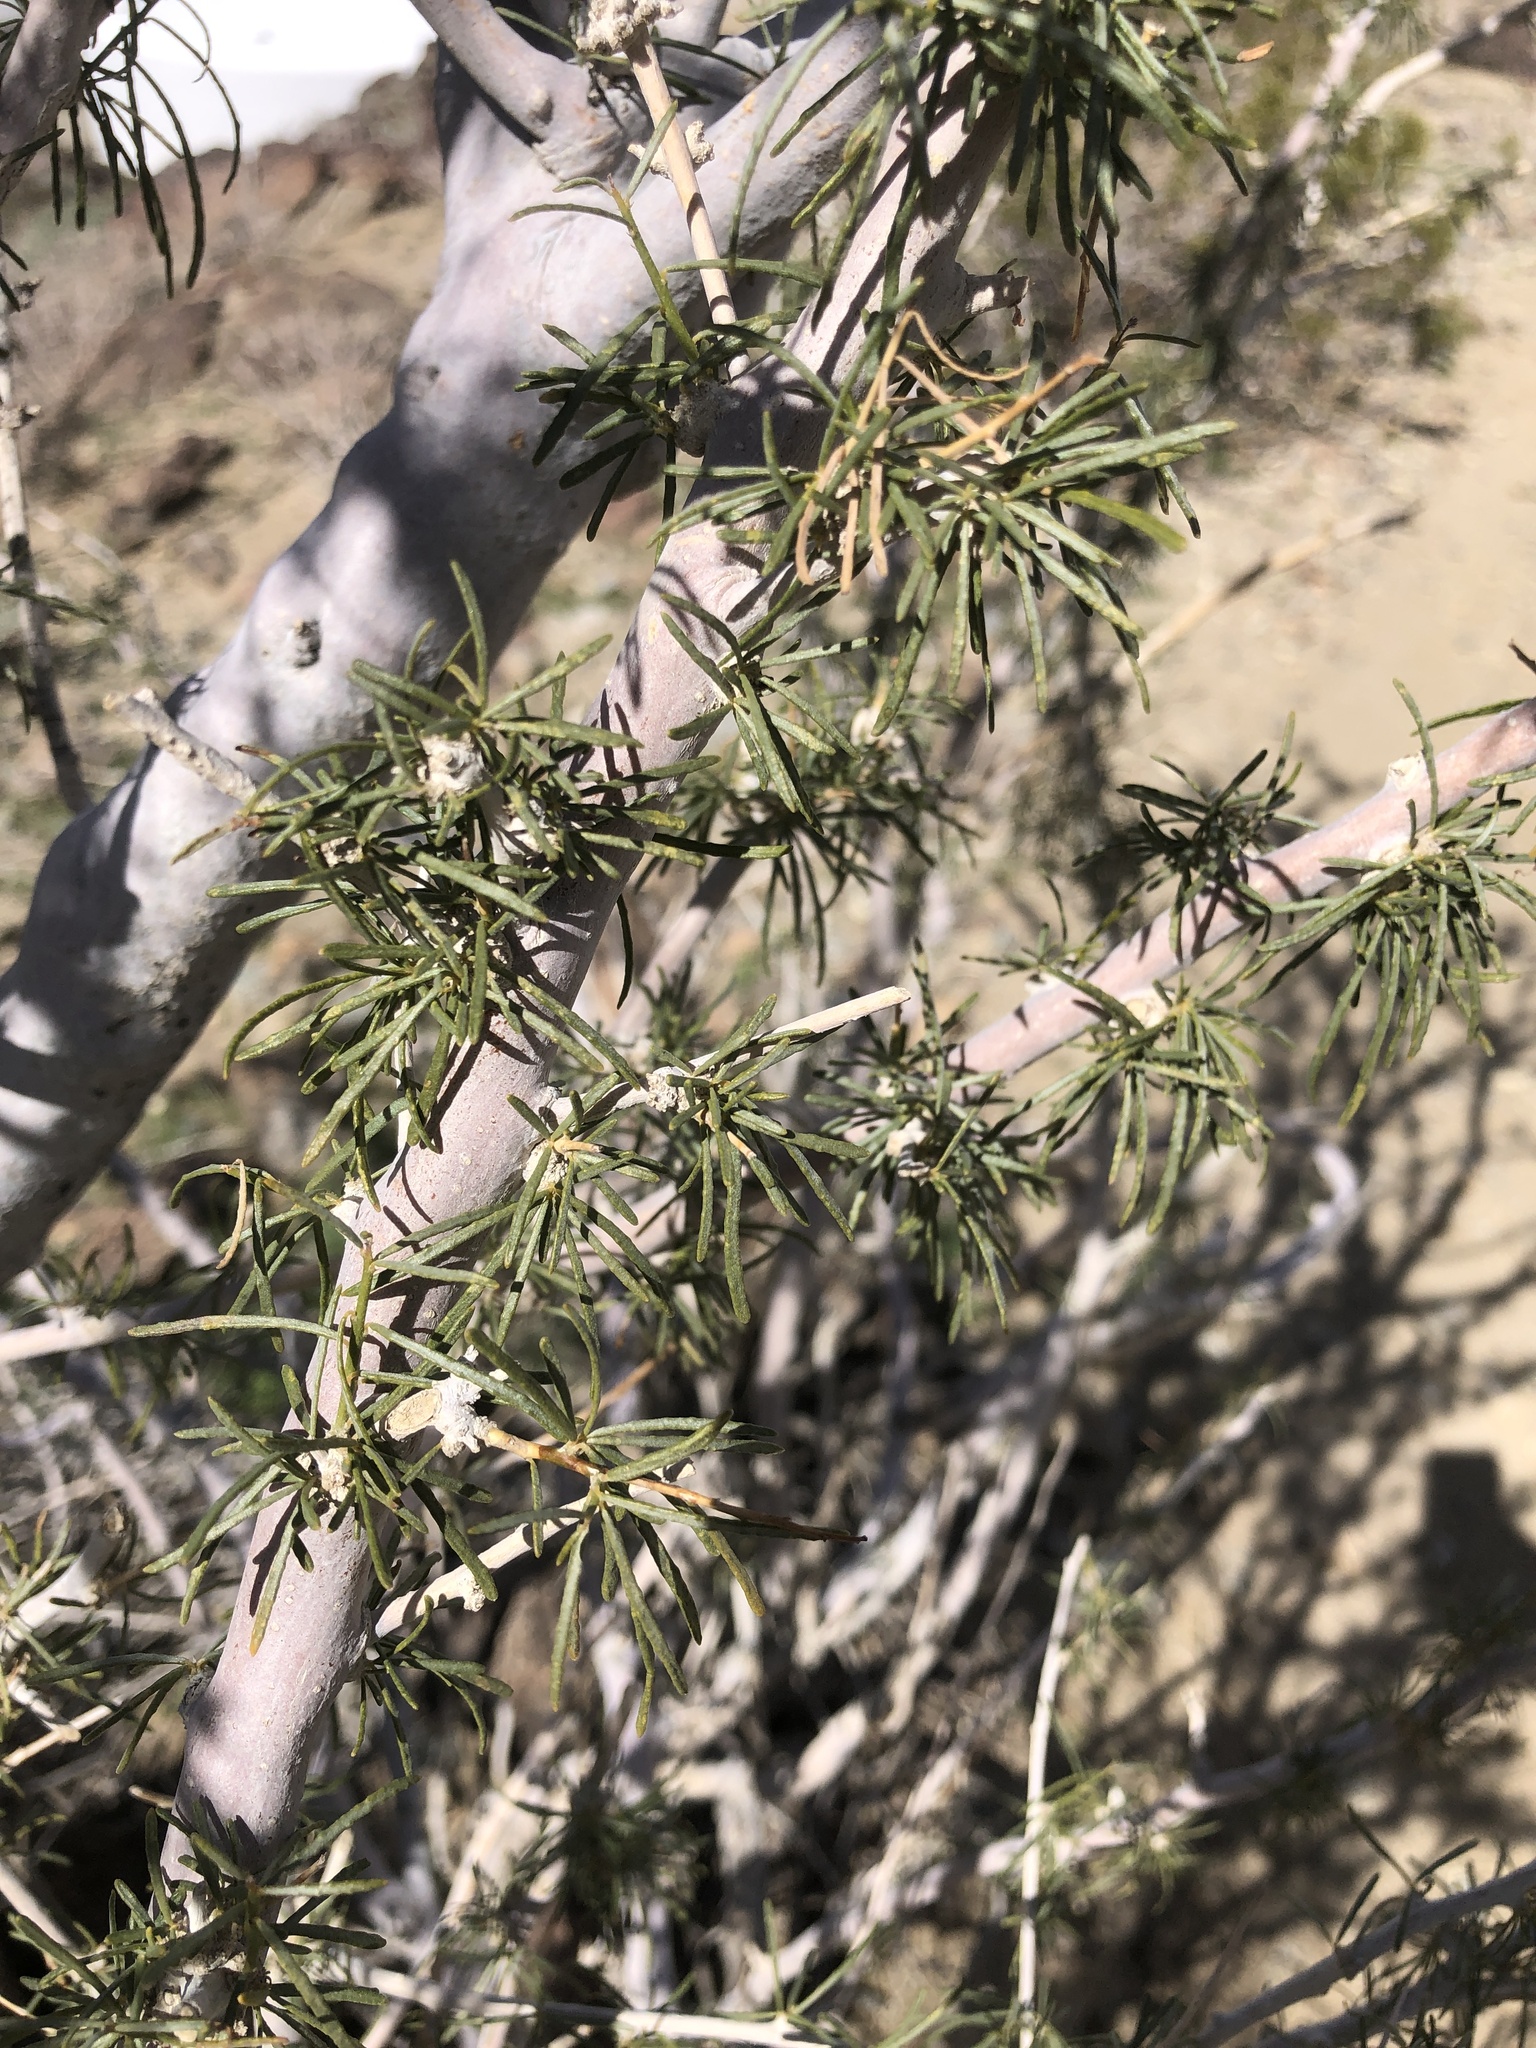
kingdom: Plantae
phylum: Tracheophyta
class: Magnoliopsida
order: Fabales
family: Fabaceae
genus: Psorothamnus
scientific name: Psorothamnus schottii
